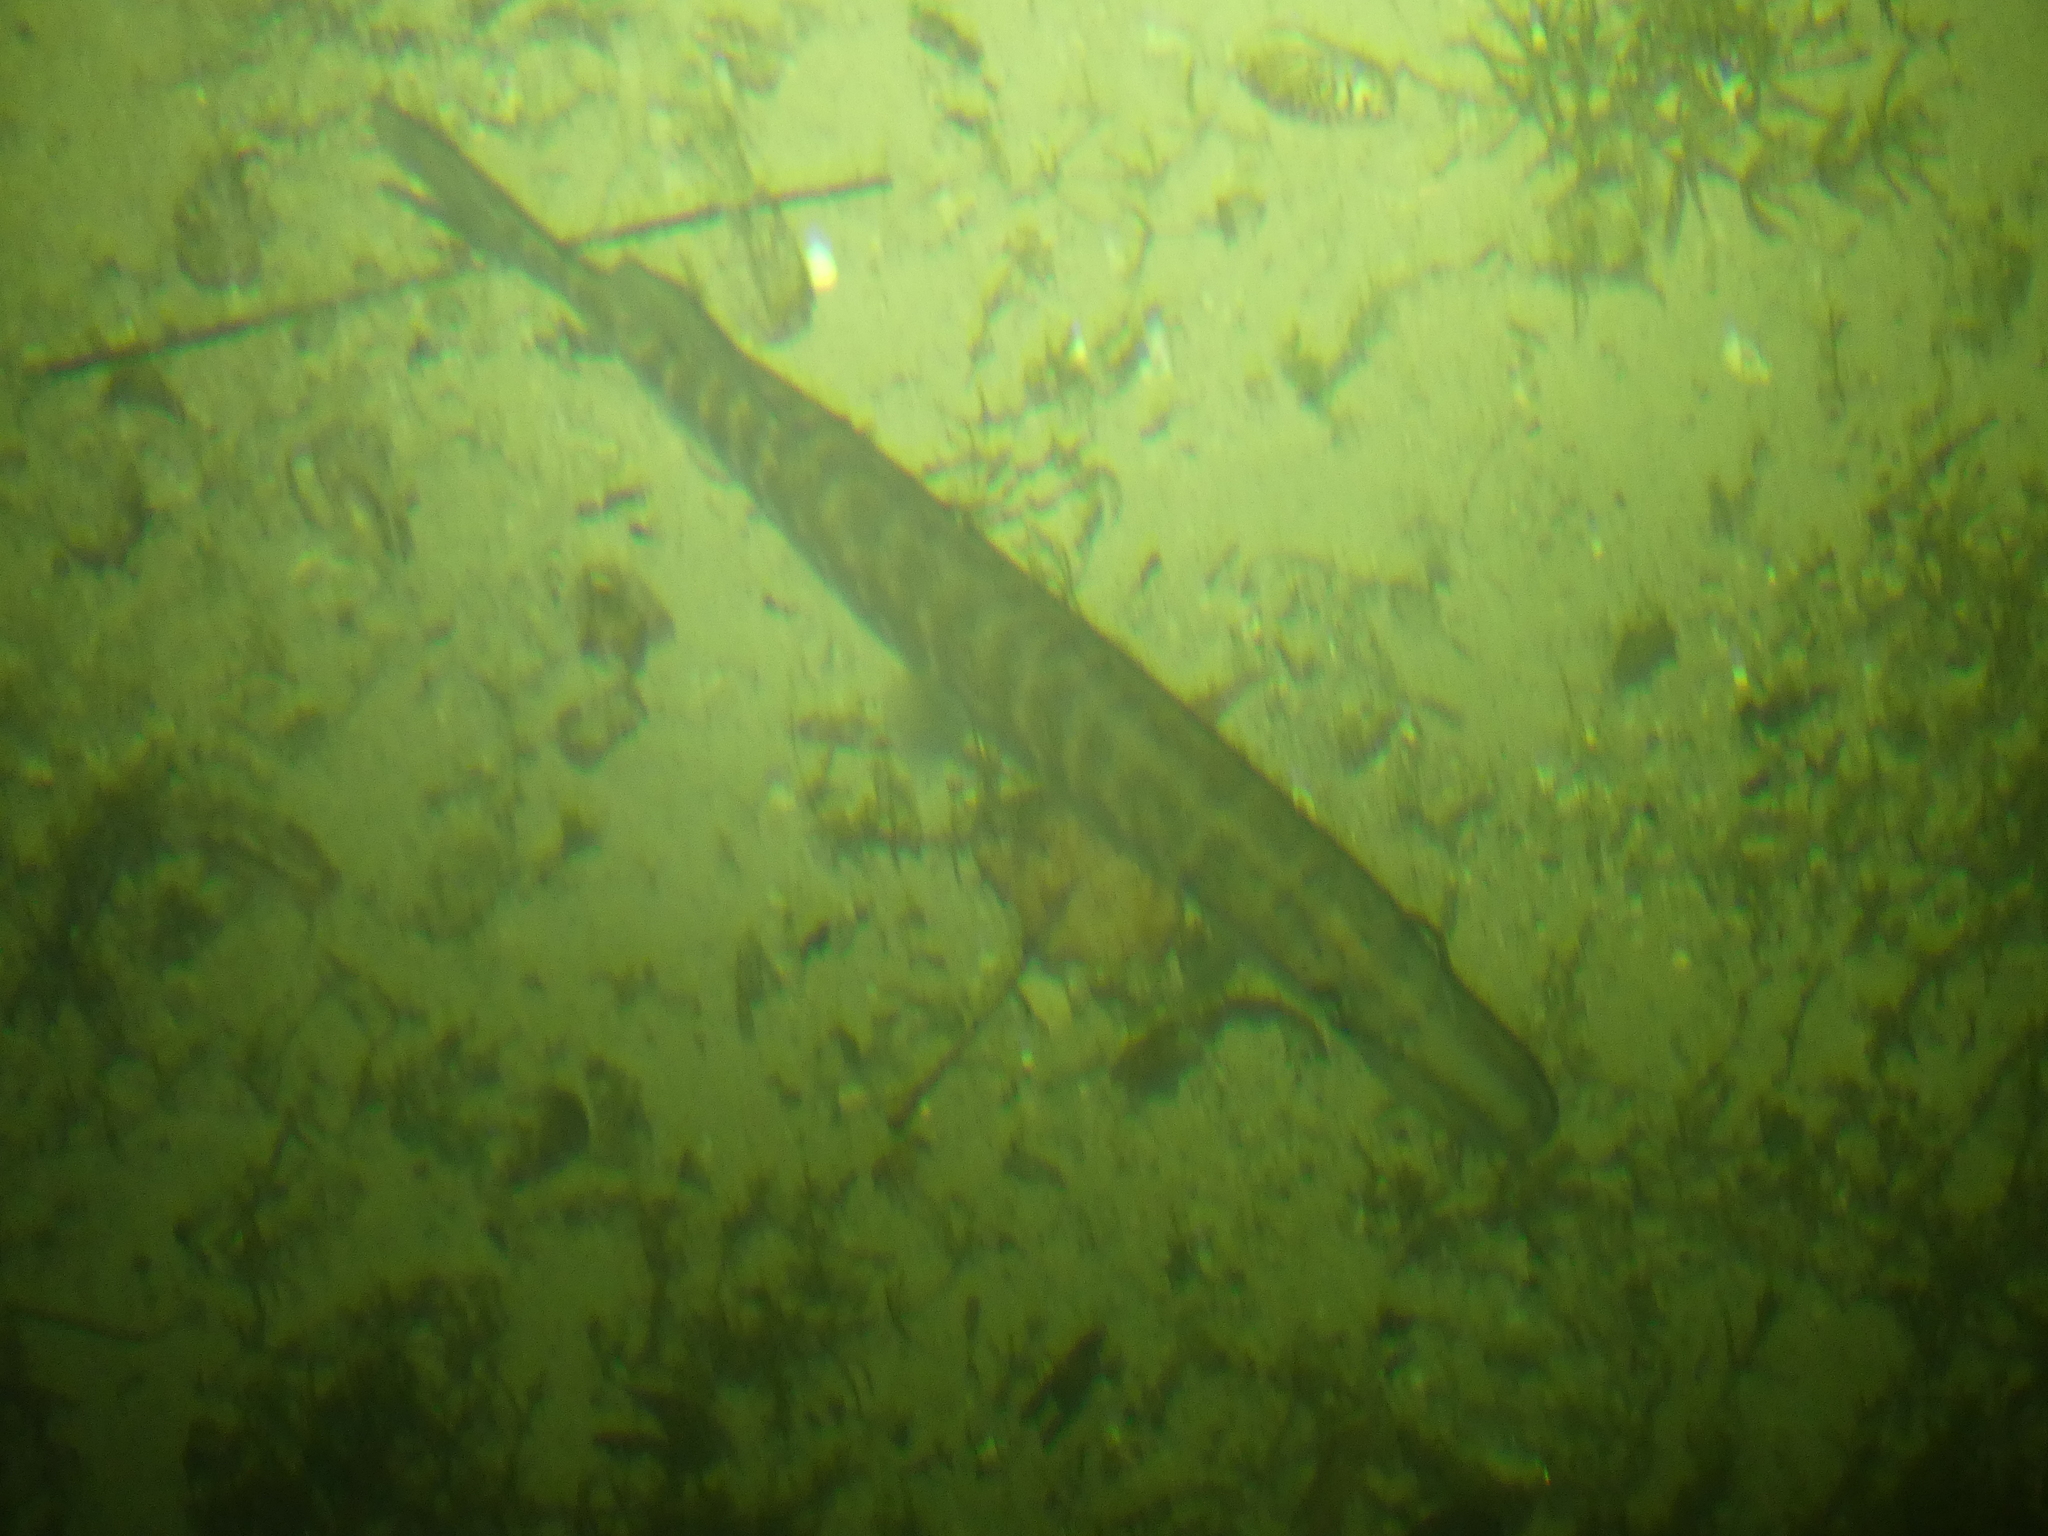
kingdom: Animalia
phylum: Chordata
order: Esociformes
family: Esocidae
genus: Esox
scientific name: Esox lucius
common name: Northern pike
